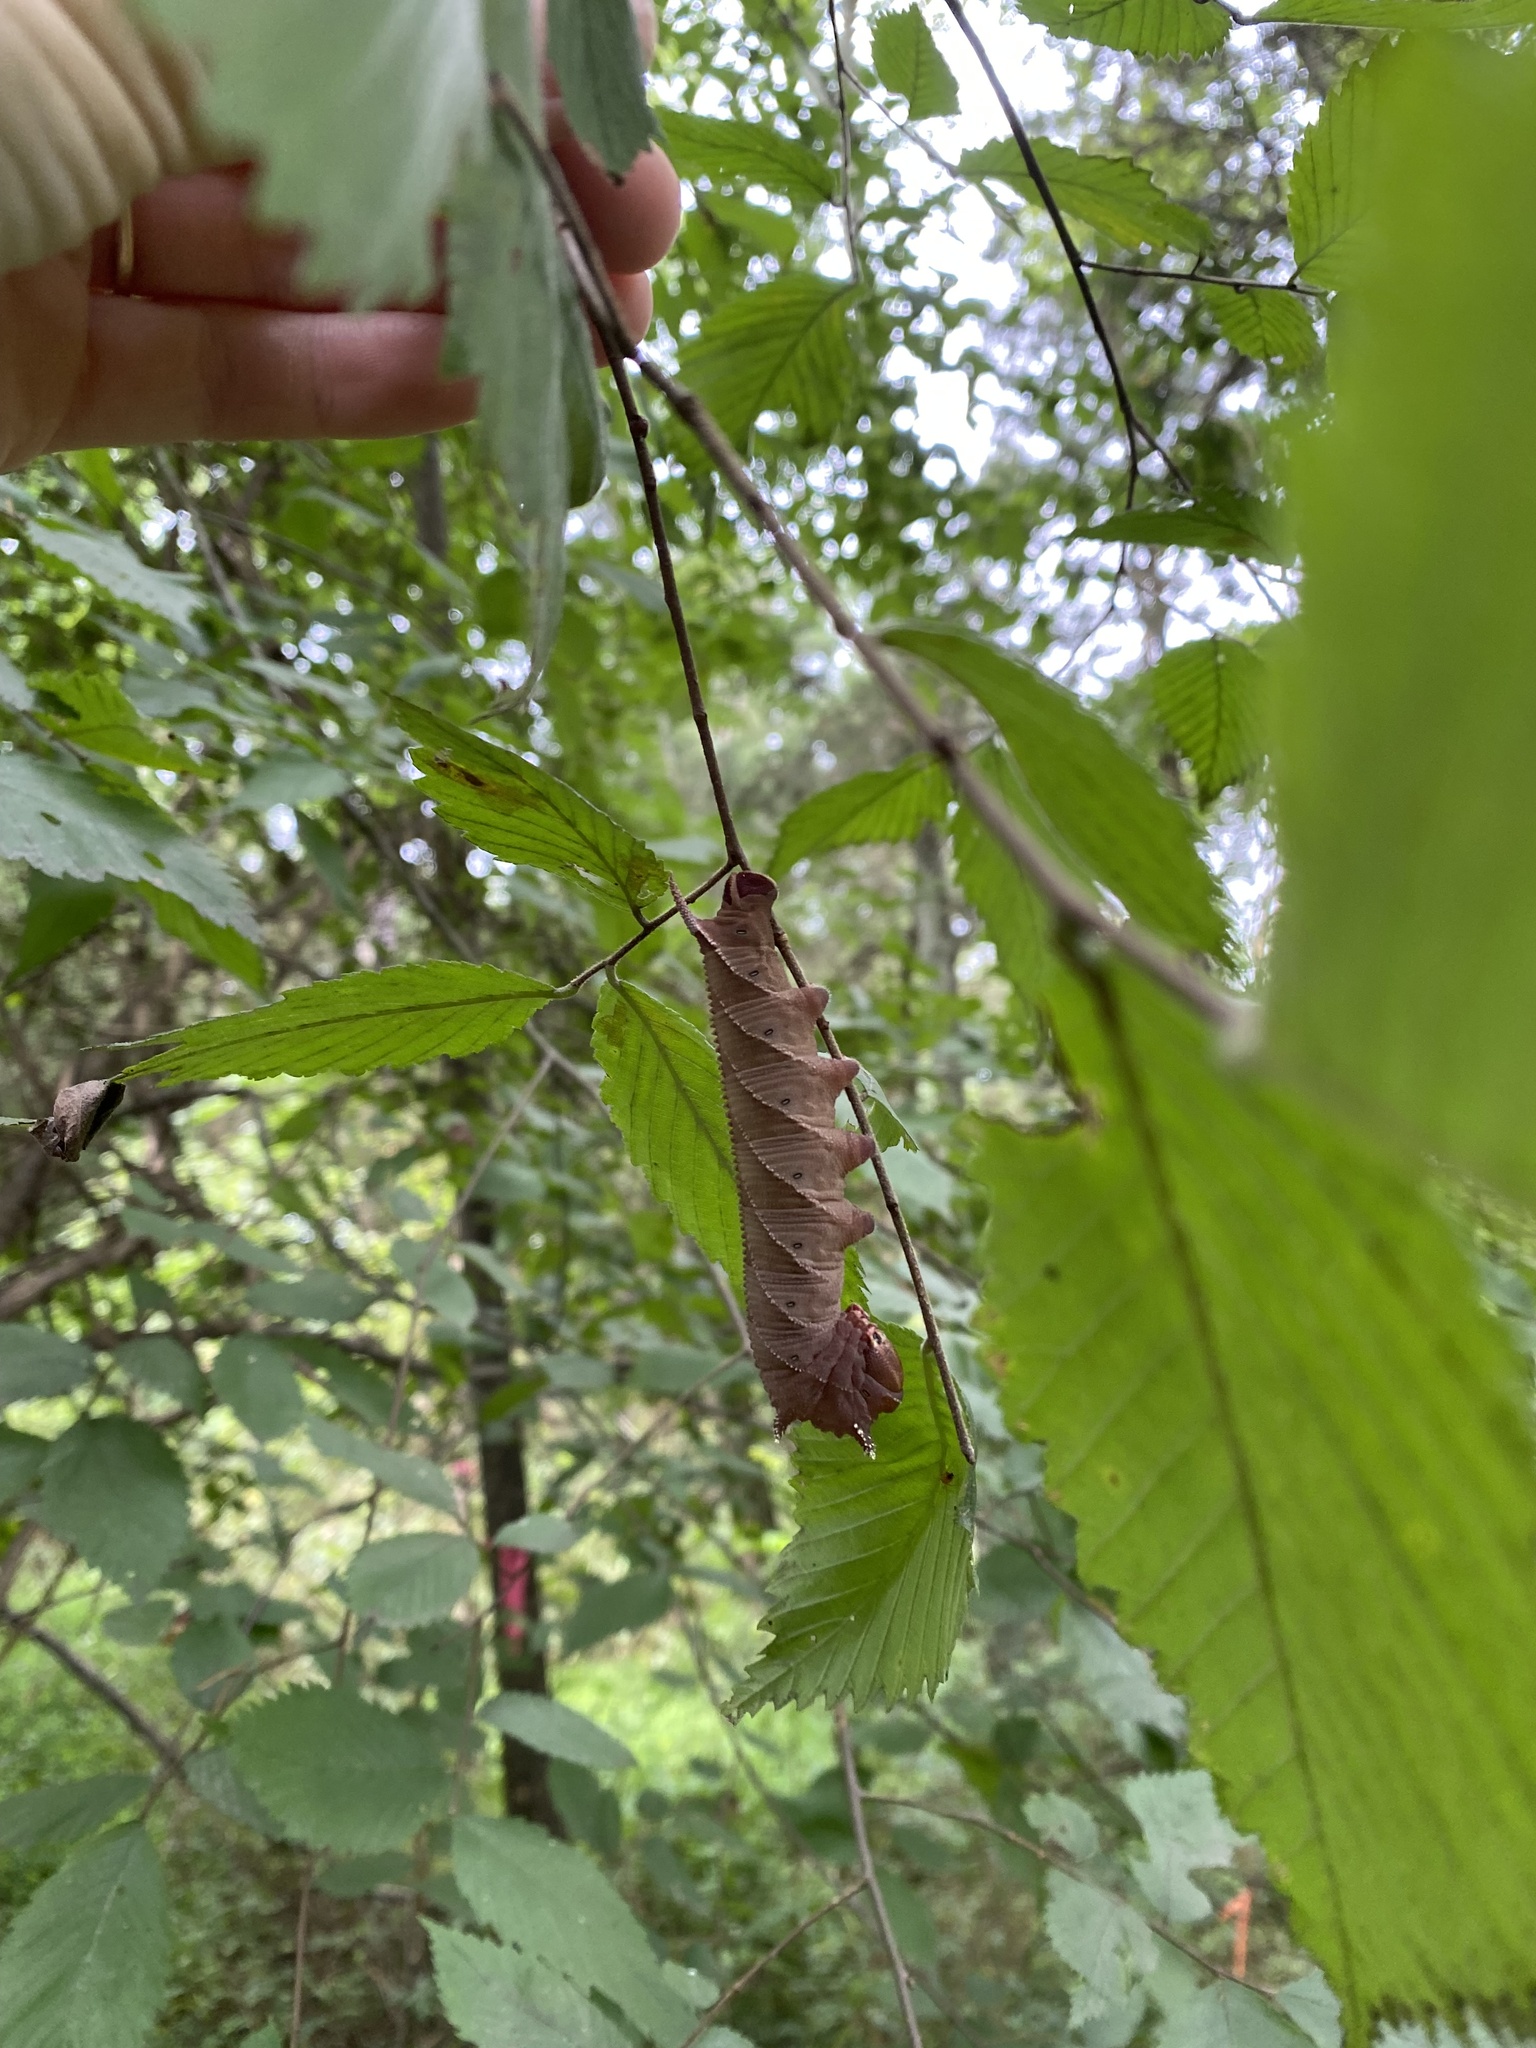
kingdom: Animalia
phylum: Arthropoda
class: Insecta
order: Lepidoptera
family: Sphingidae
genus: Ceratomia
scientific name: Ceratomia amyntor
